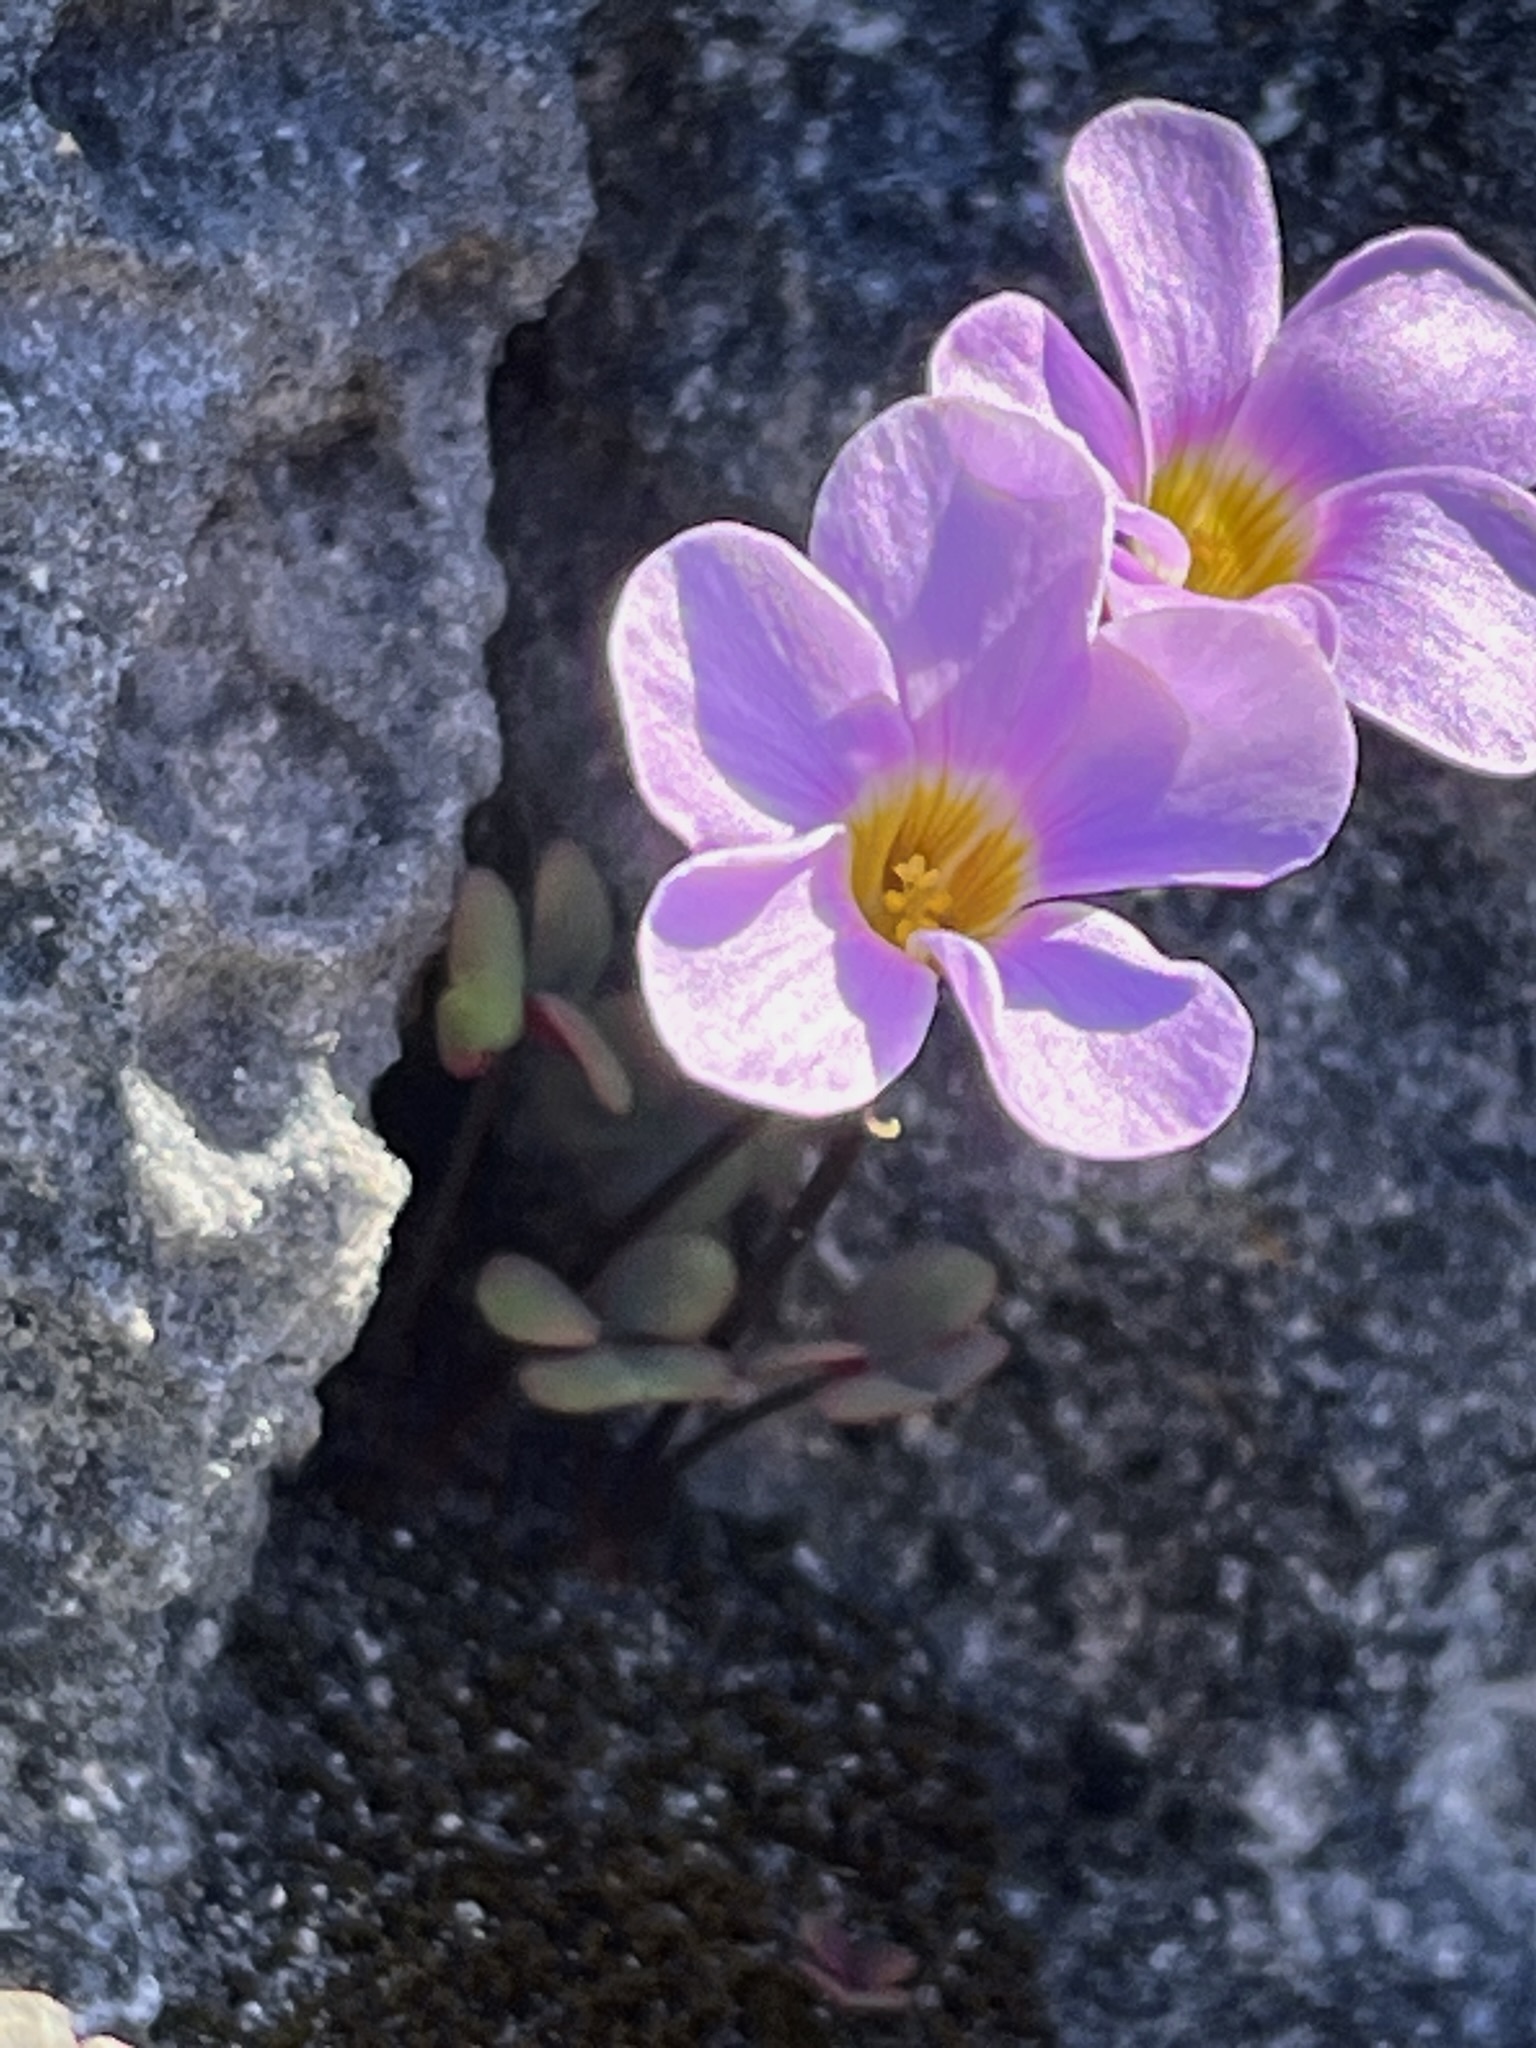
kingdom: Plantae
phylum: Tracheophyta
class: Magnoliopsida
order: Oxalidales
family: Oxalidaceae
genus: Oxalis
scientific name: Oxalis depressa
